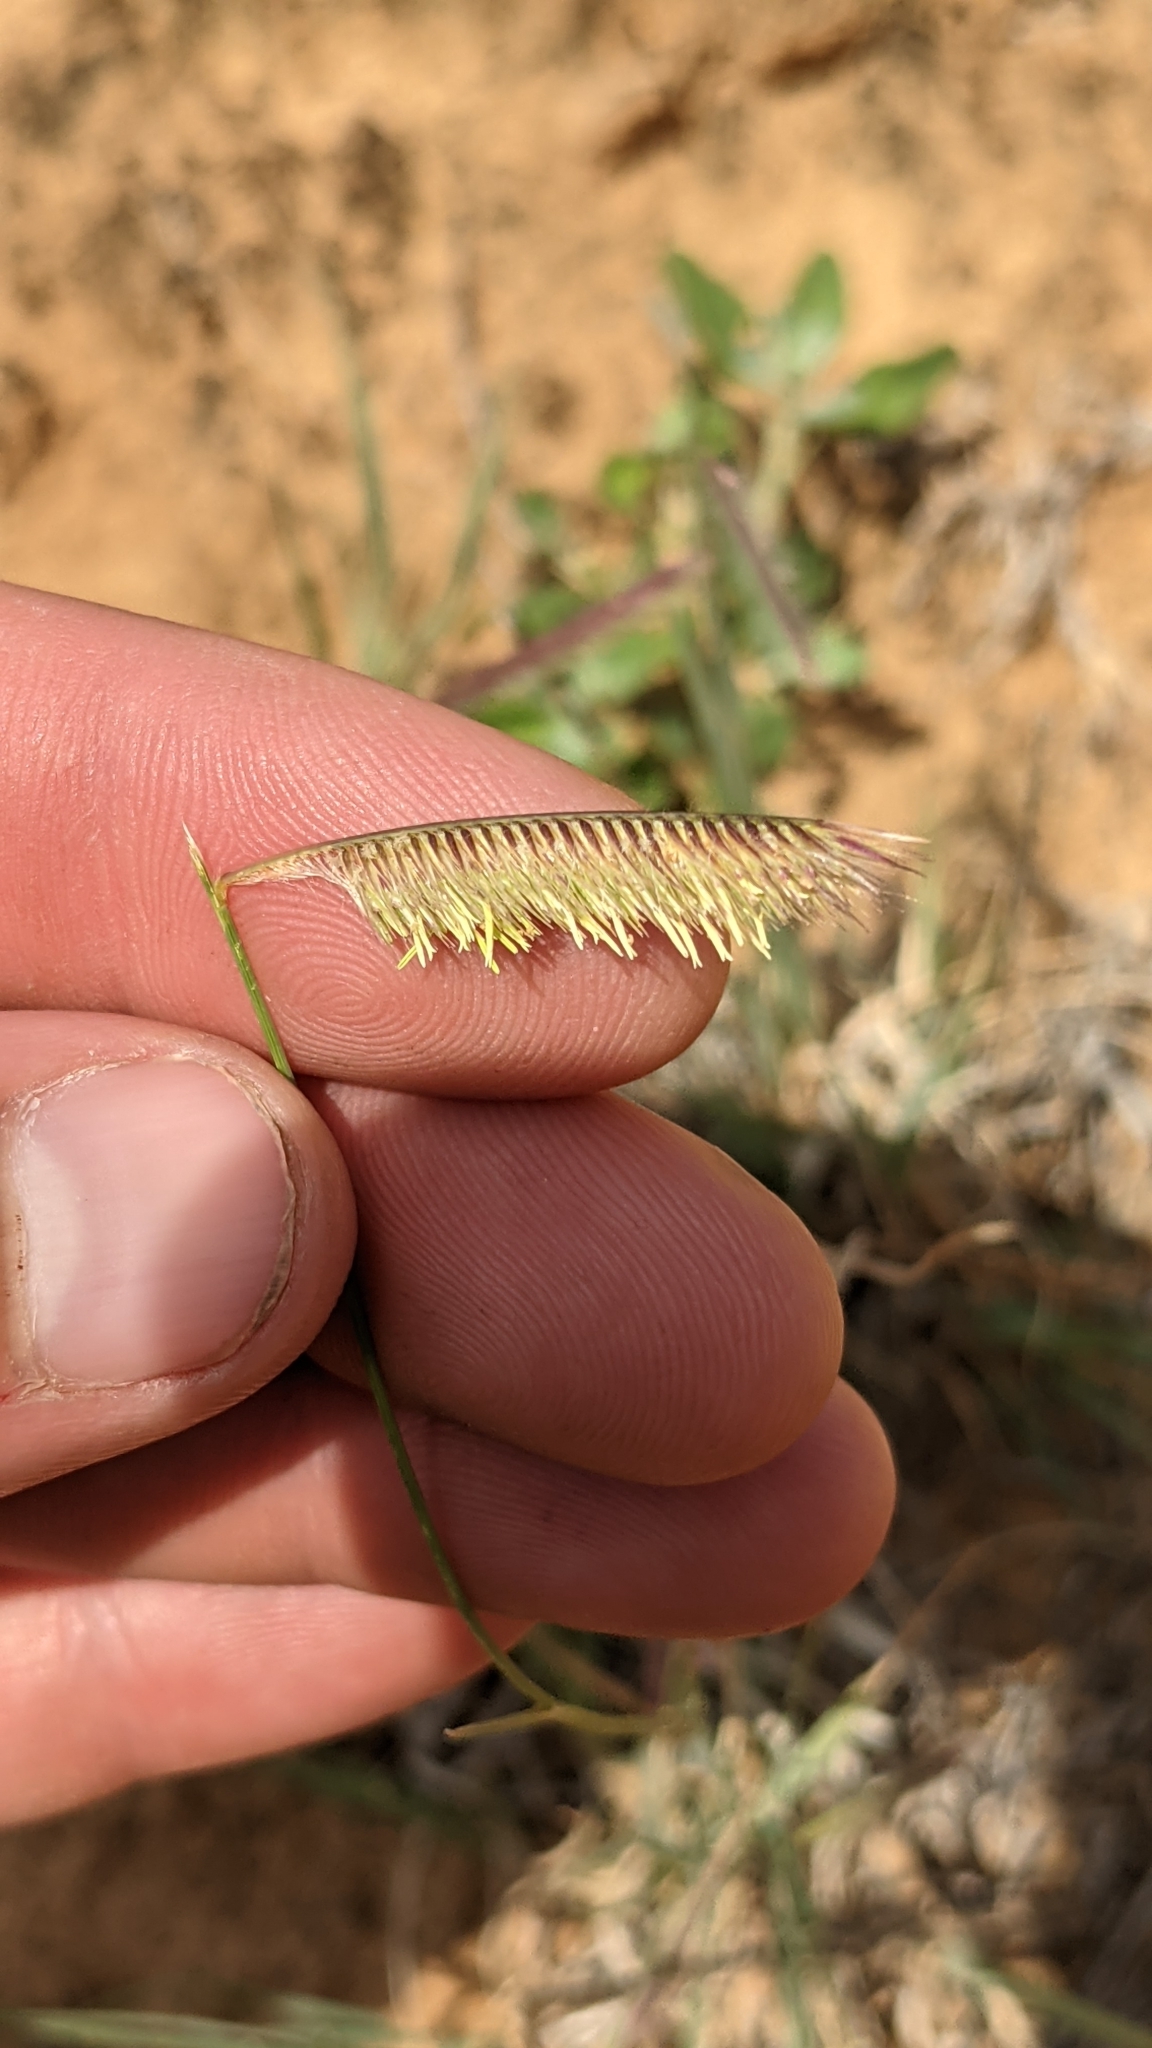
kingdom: Plantae
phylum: Tracheophyta
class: Liliopsida
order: Poales
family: Poaceae
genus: Bouteloua
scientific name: Bouteloua gracilis
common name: Blue grama
